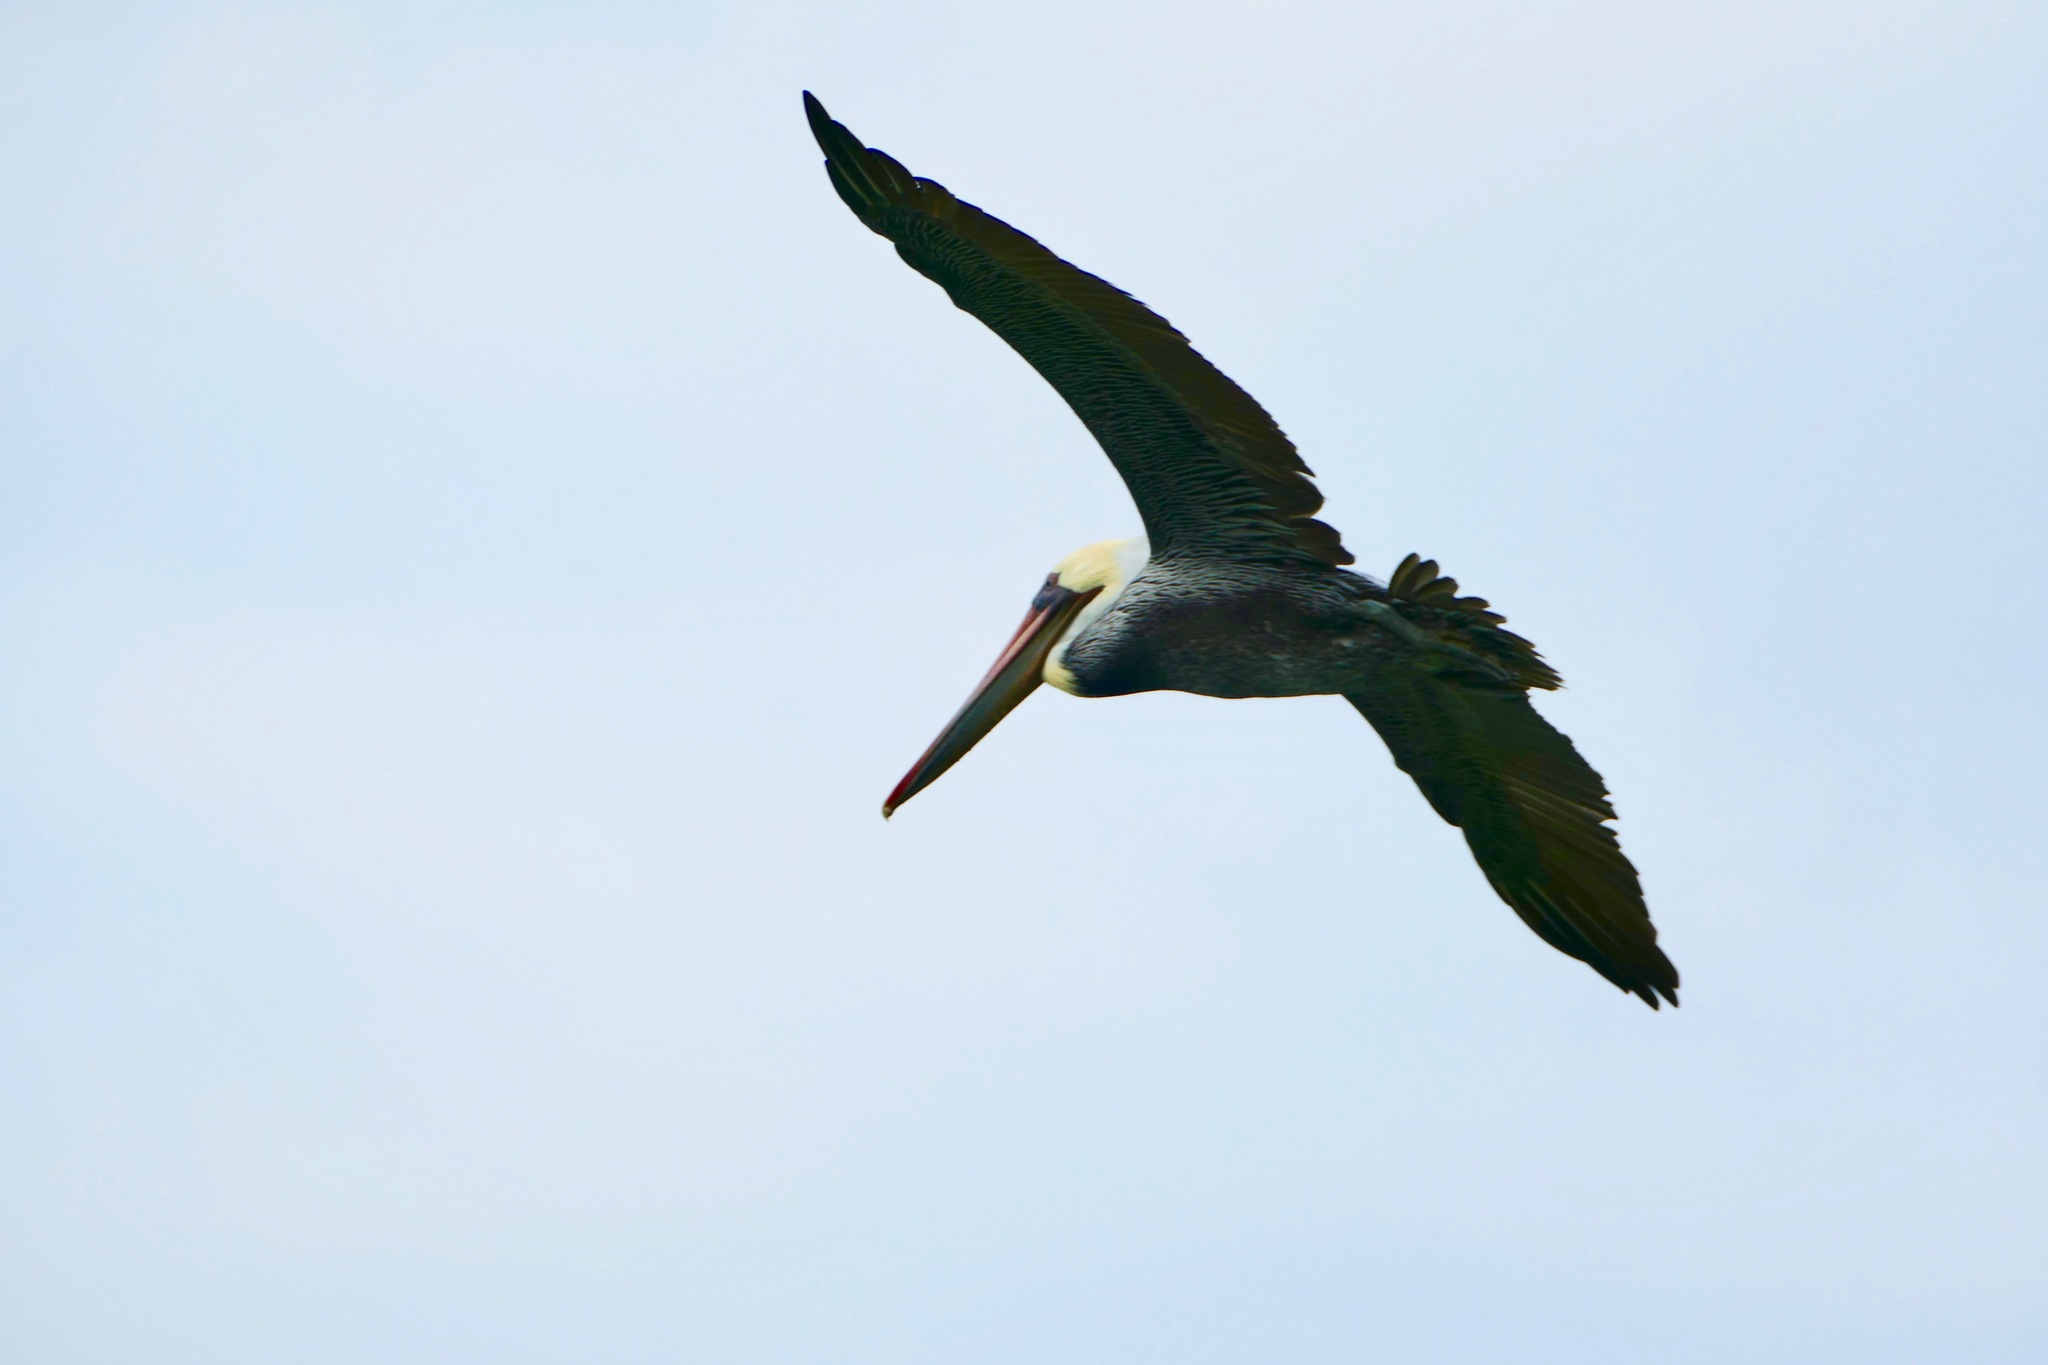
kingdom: Animalia
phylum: Chordata
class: Aves
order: Pelecaniformes
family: Pelecanidae
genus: Pelecanus
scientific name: Pelecanus occidentalis
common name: Brown pelican
